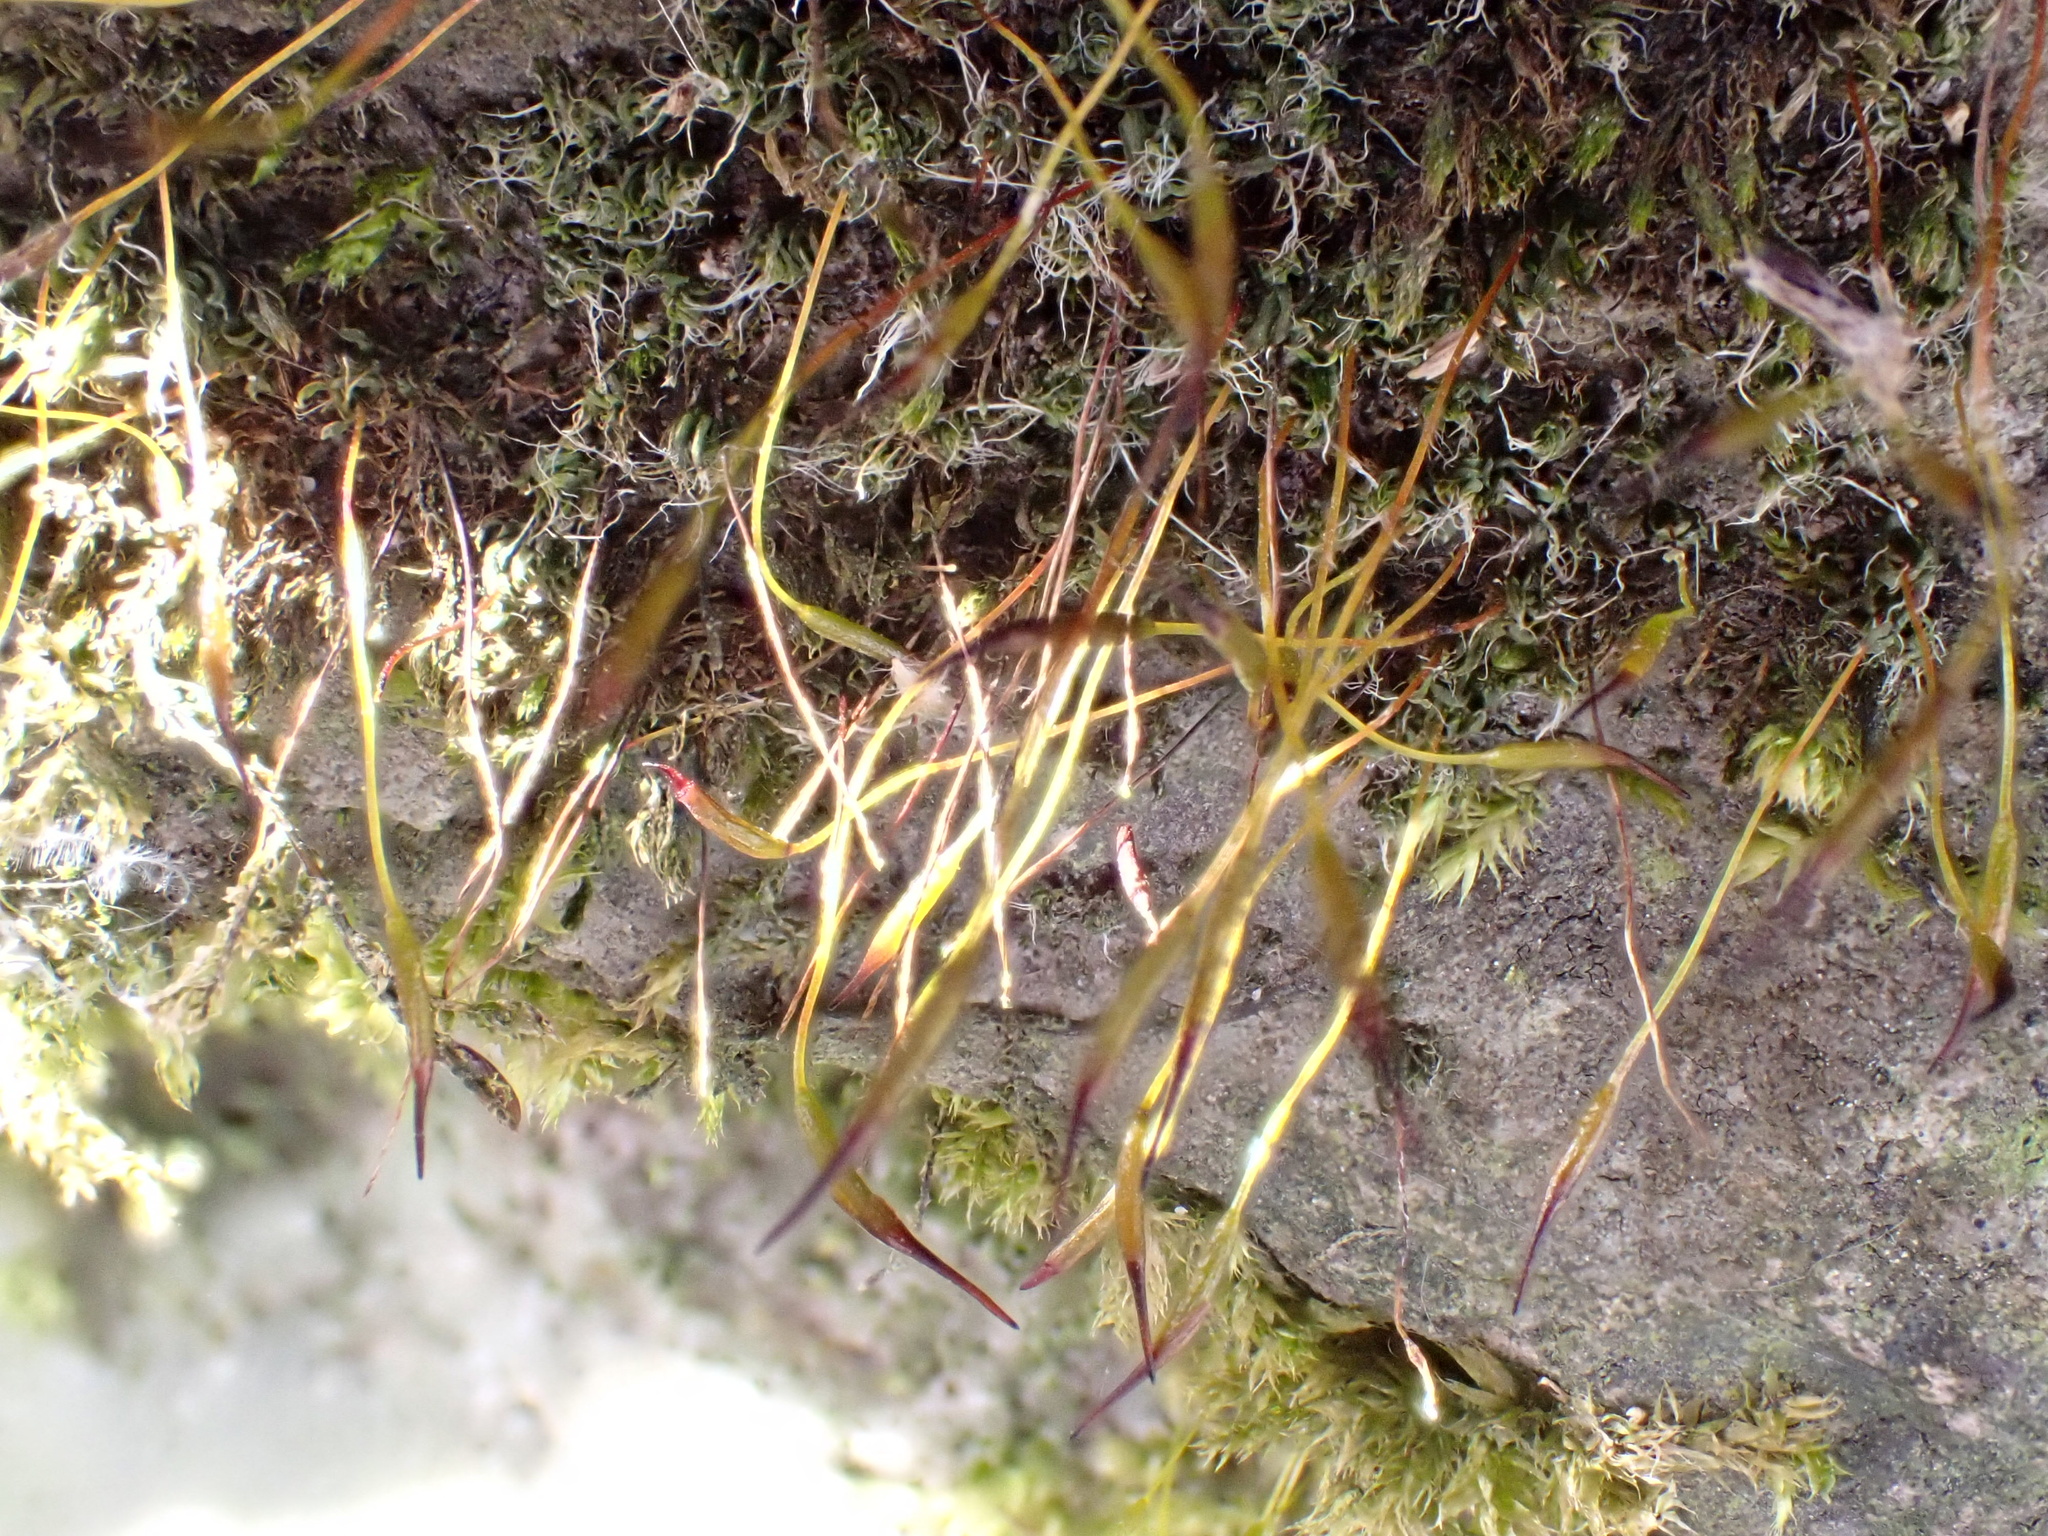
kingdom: Plantae
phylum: Bryophyta
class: Bryopsida
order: Pottiales
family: Pottiaceae
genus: Tortula
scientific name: Tortula muralis
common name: Wall screw-moss
